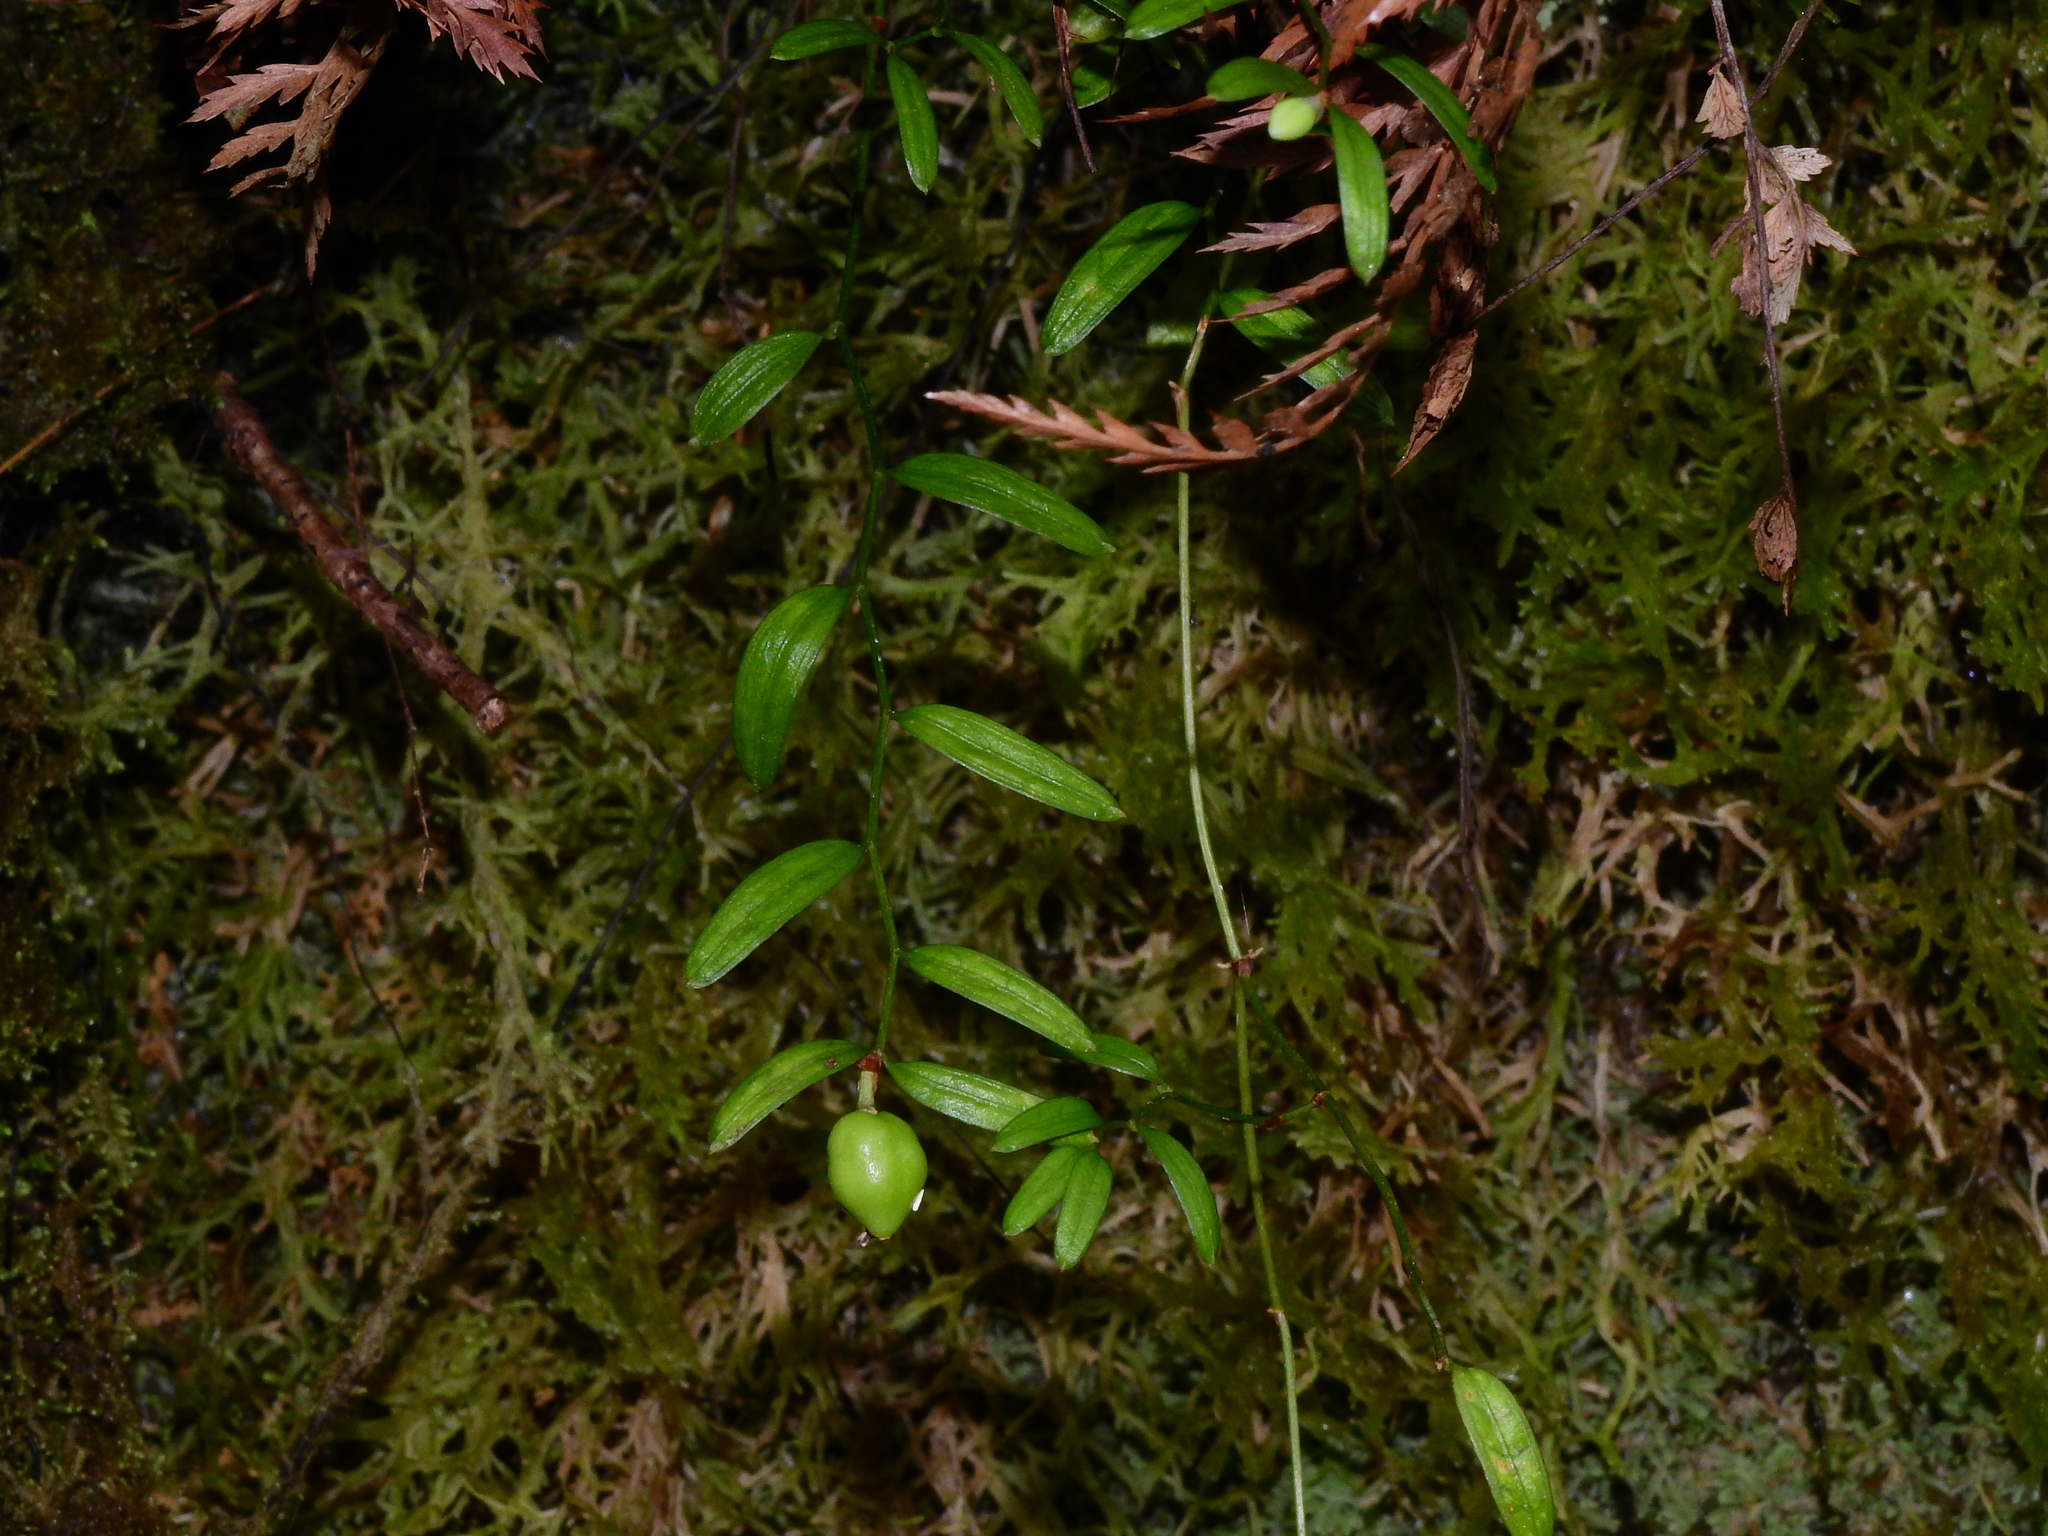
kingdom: Plantae
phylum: Tracheophyta
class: Liliopsida
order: Liliales
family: Alstroemeriaceae
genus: Luzuriaga
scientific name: Luzuriaga parviflora
